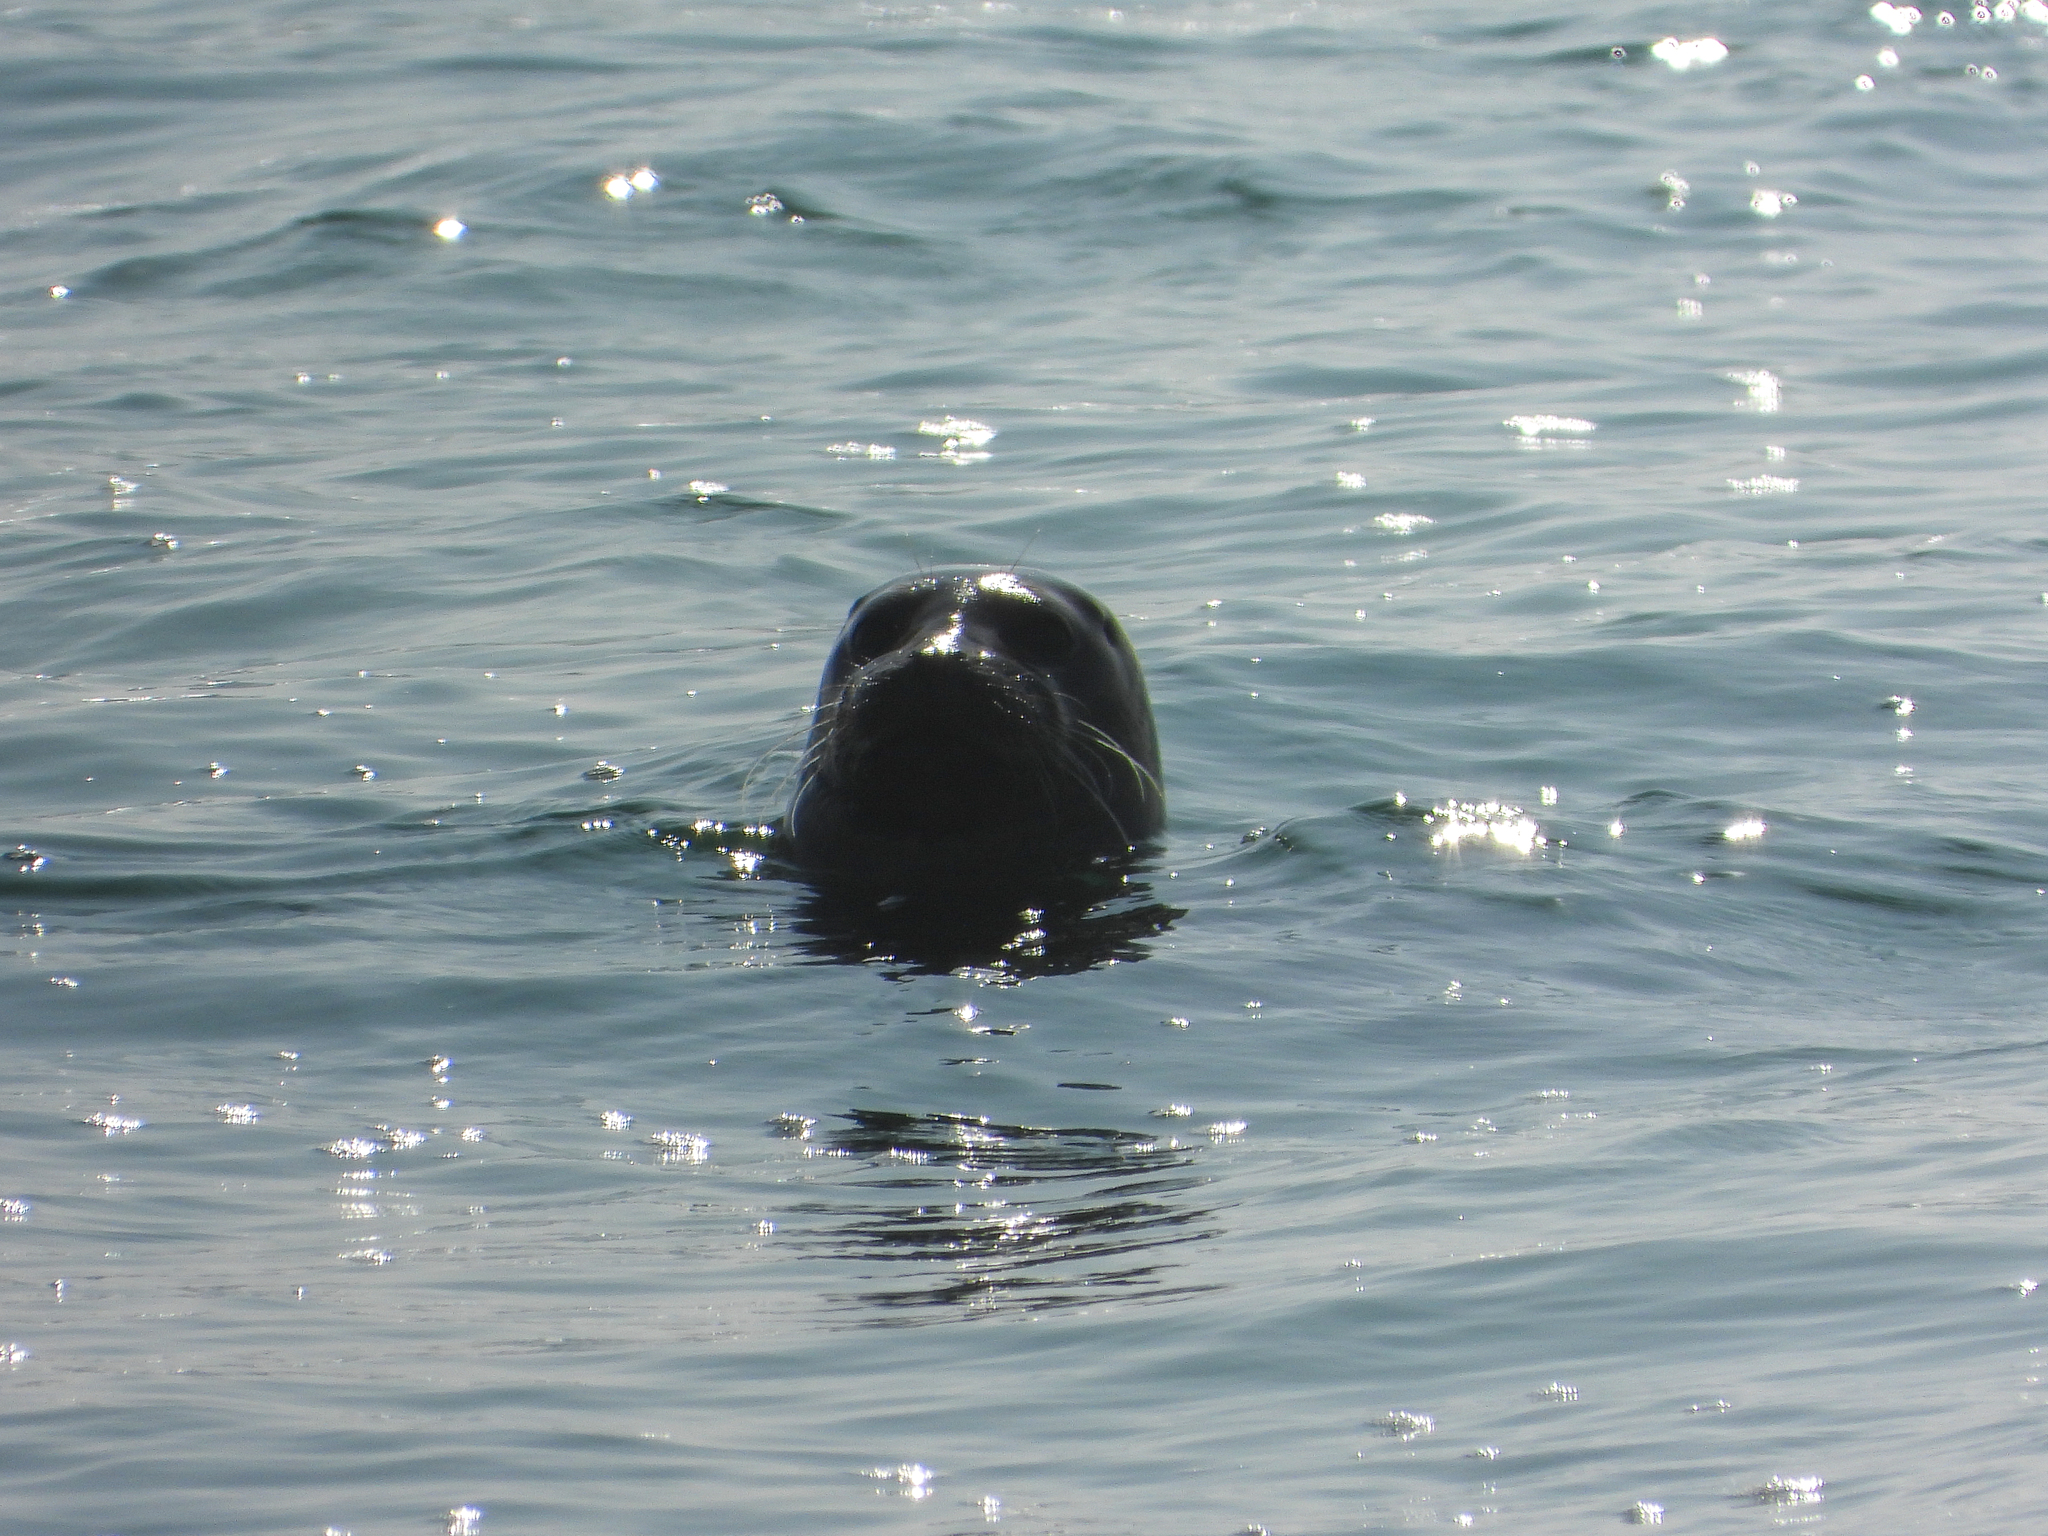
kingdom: Animalia
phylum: Chordata
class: Mammalia
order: Carnivora
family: Phocidae
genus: Phoca
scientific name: Phoca vitulina
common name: Harbor seal
